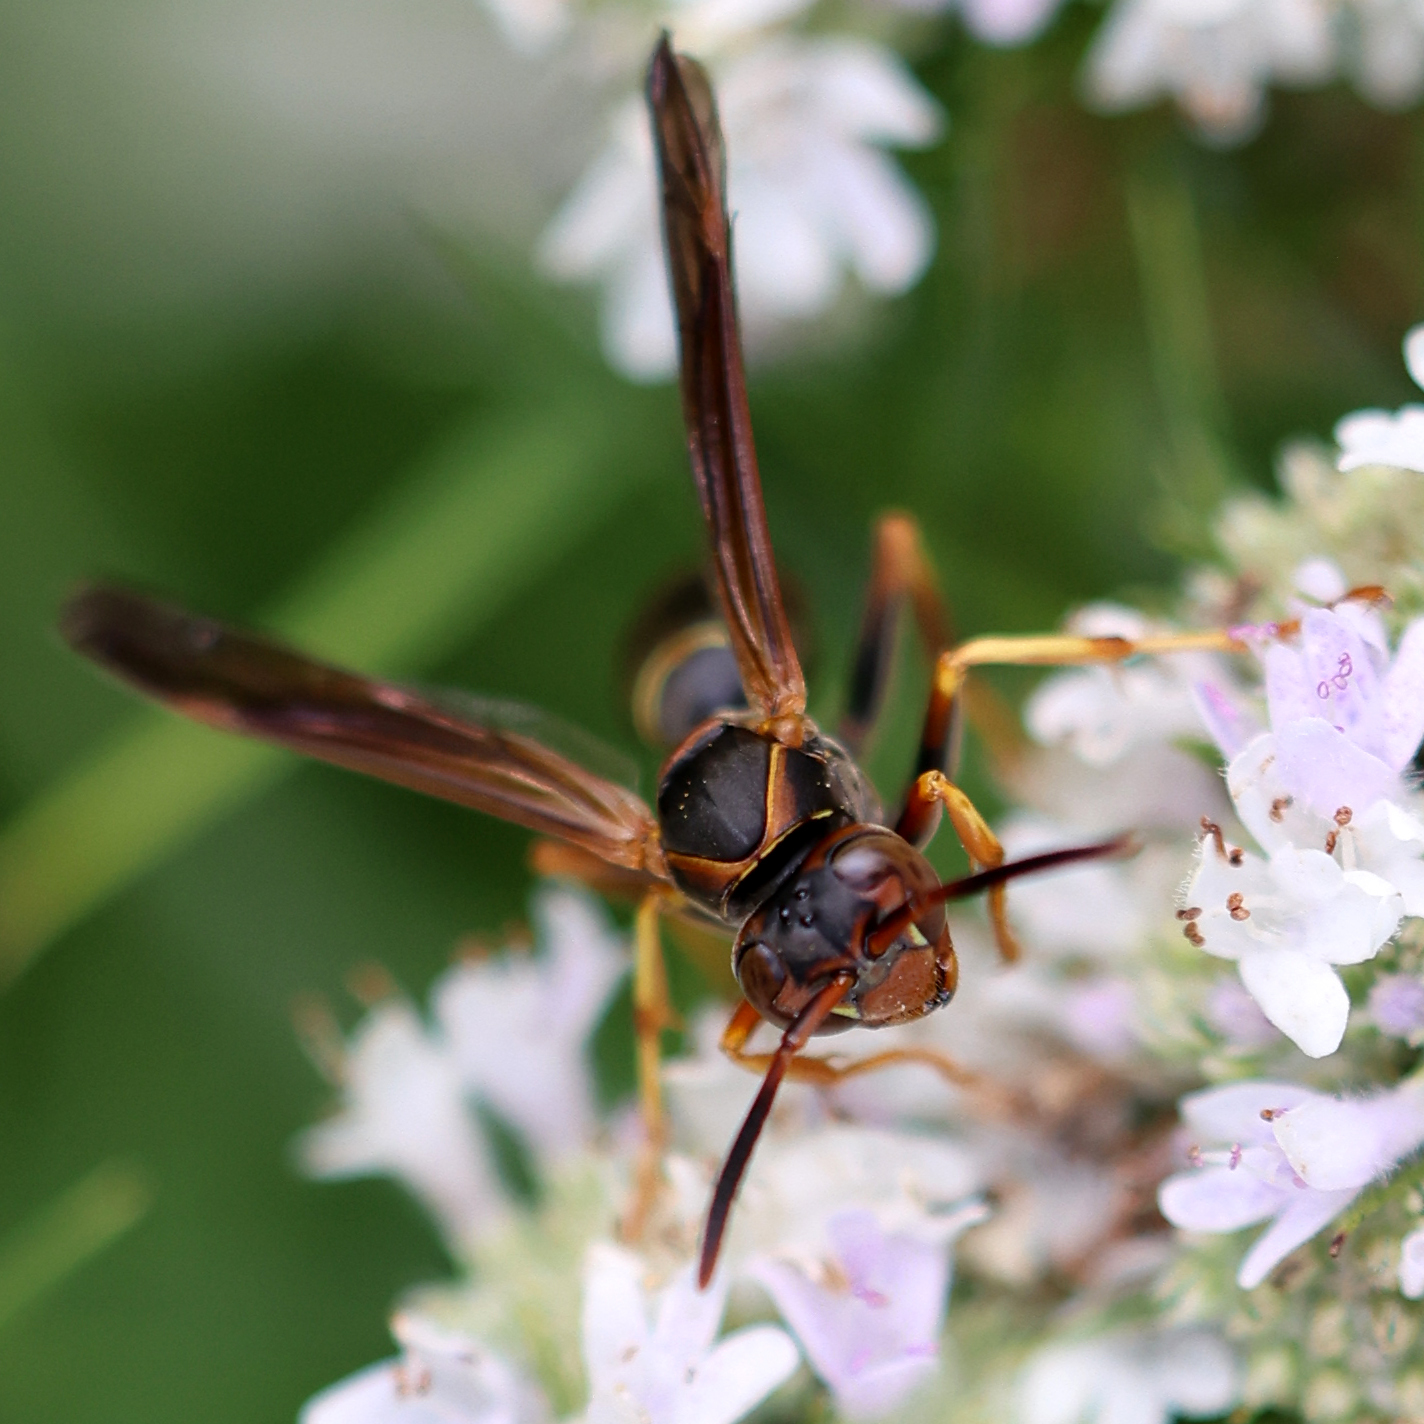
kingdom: Animalia
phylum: Arthropoda
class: Insecta
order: Hymenoptera
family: Eumenidae
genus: Polistes
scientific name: Polistes fuscatus
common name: Dark paper wasp
